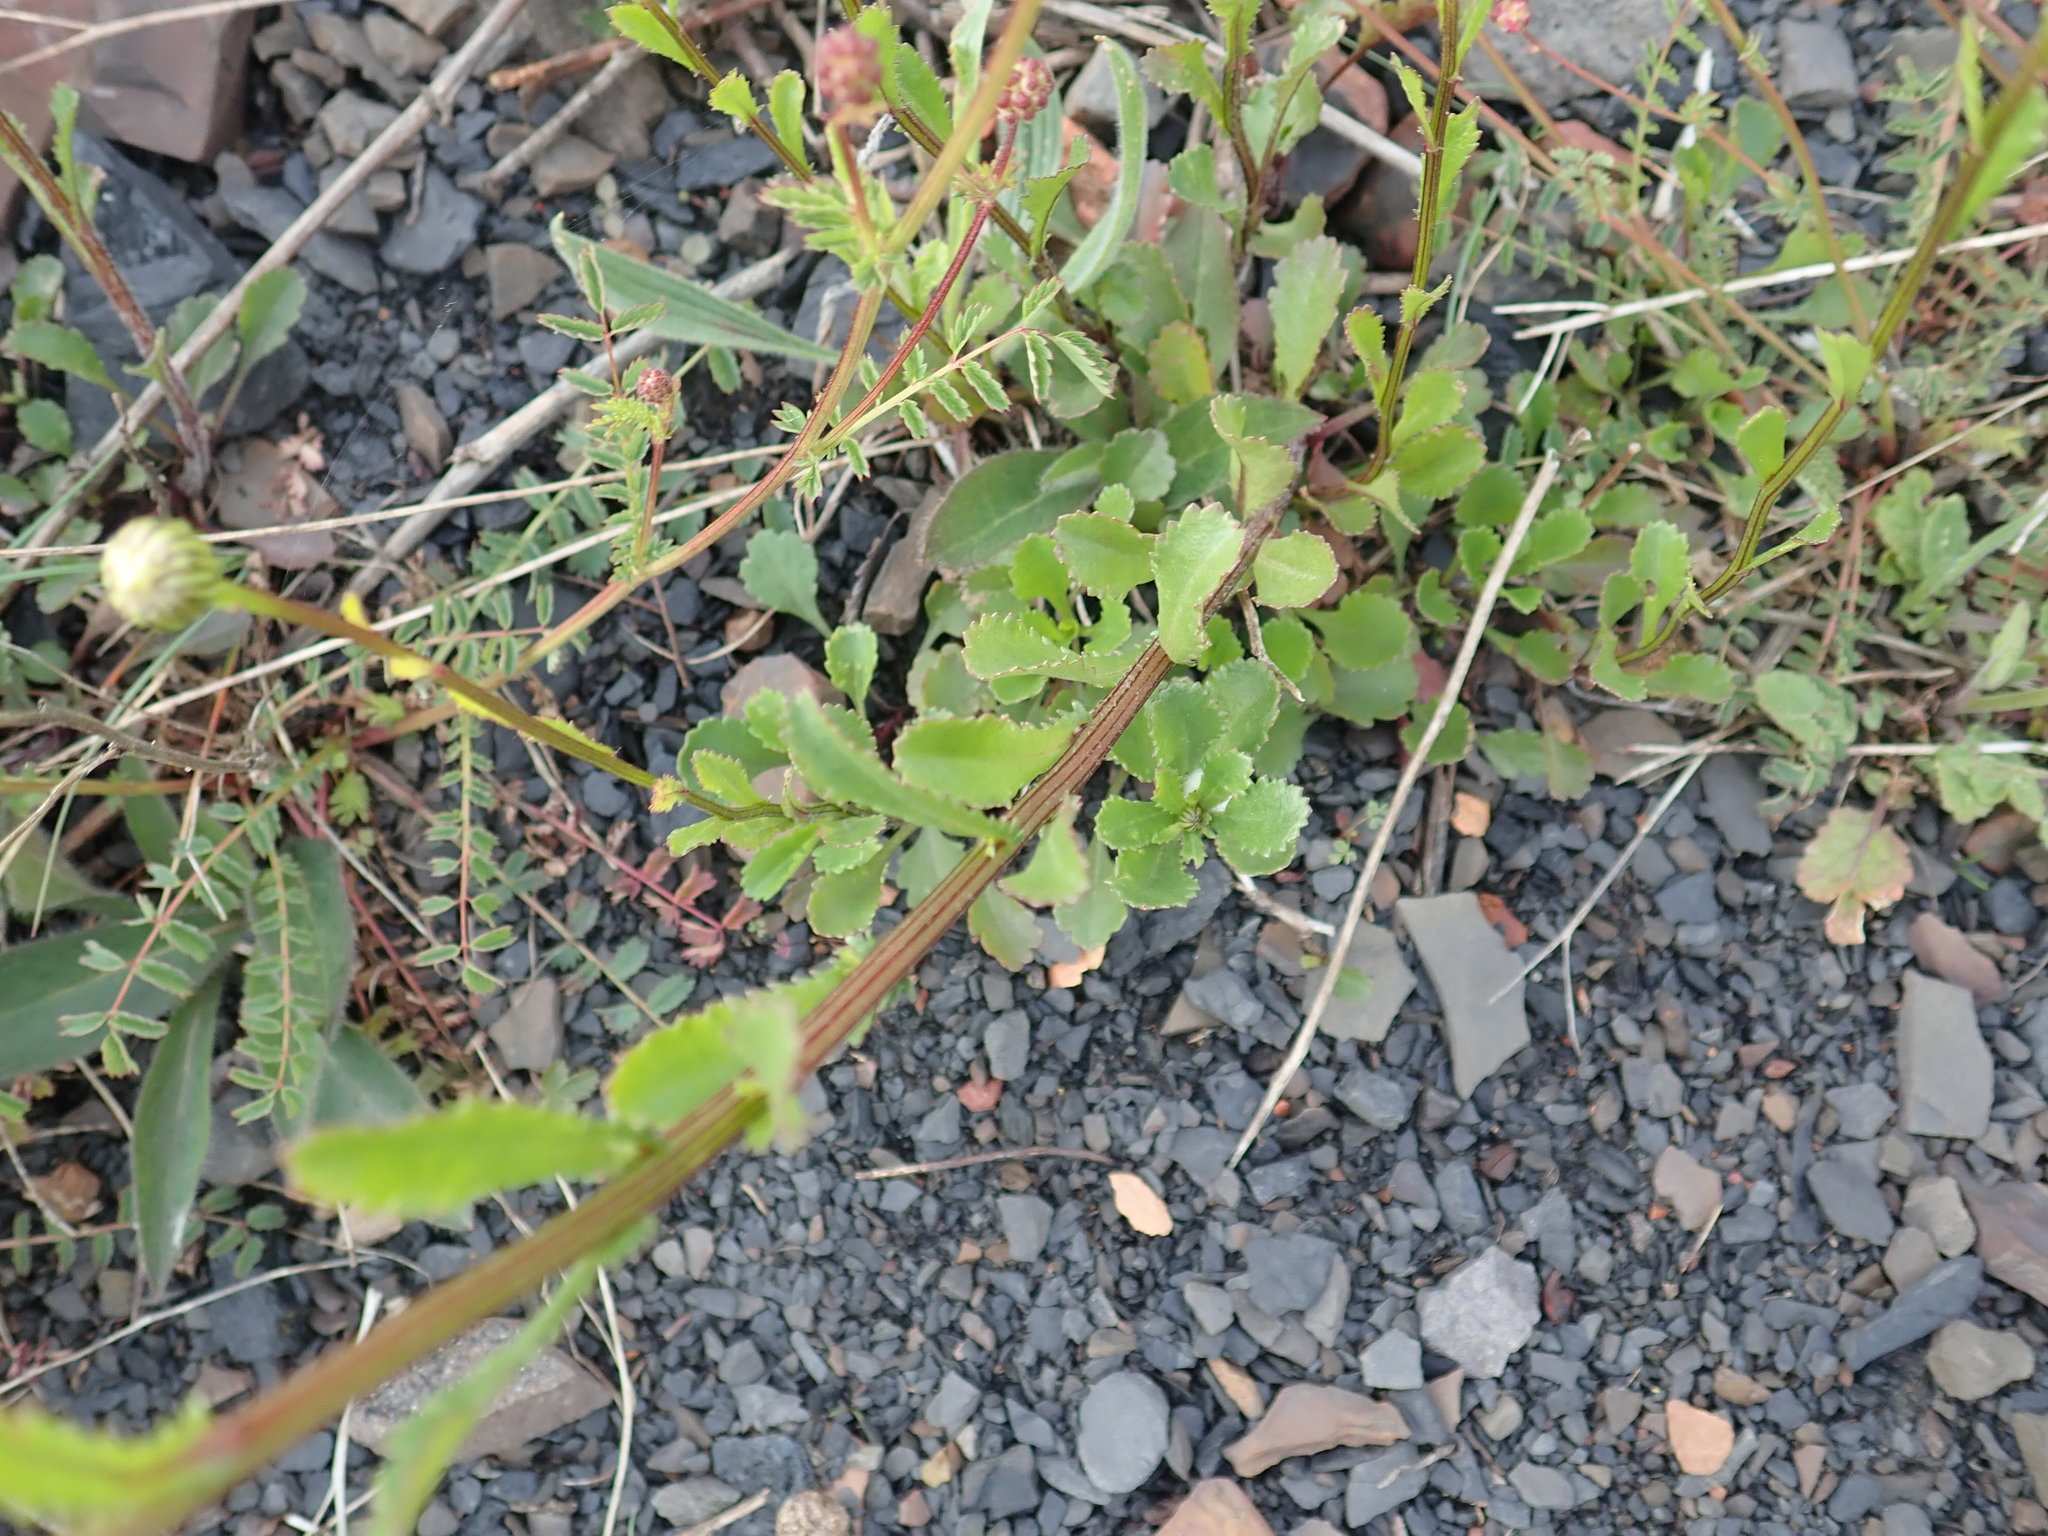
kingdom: Plantae
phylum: Tracheophyta
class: Magnoliopsida
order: Asterales
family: Asteraceae
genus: Leucanthemum
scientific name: Leucanthemum vulgare
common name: Oxeye daisy
